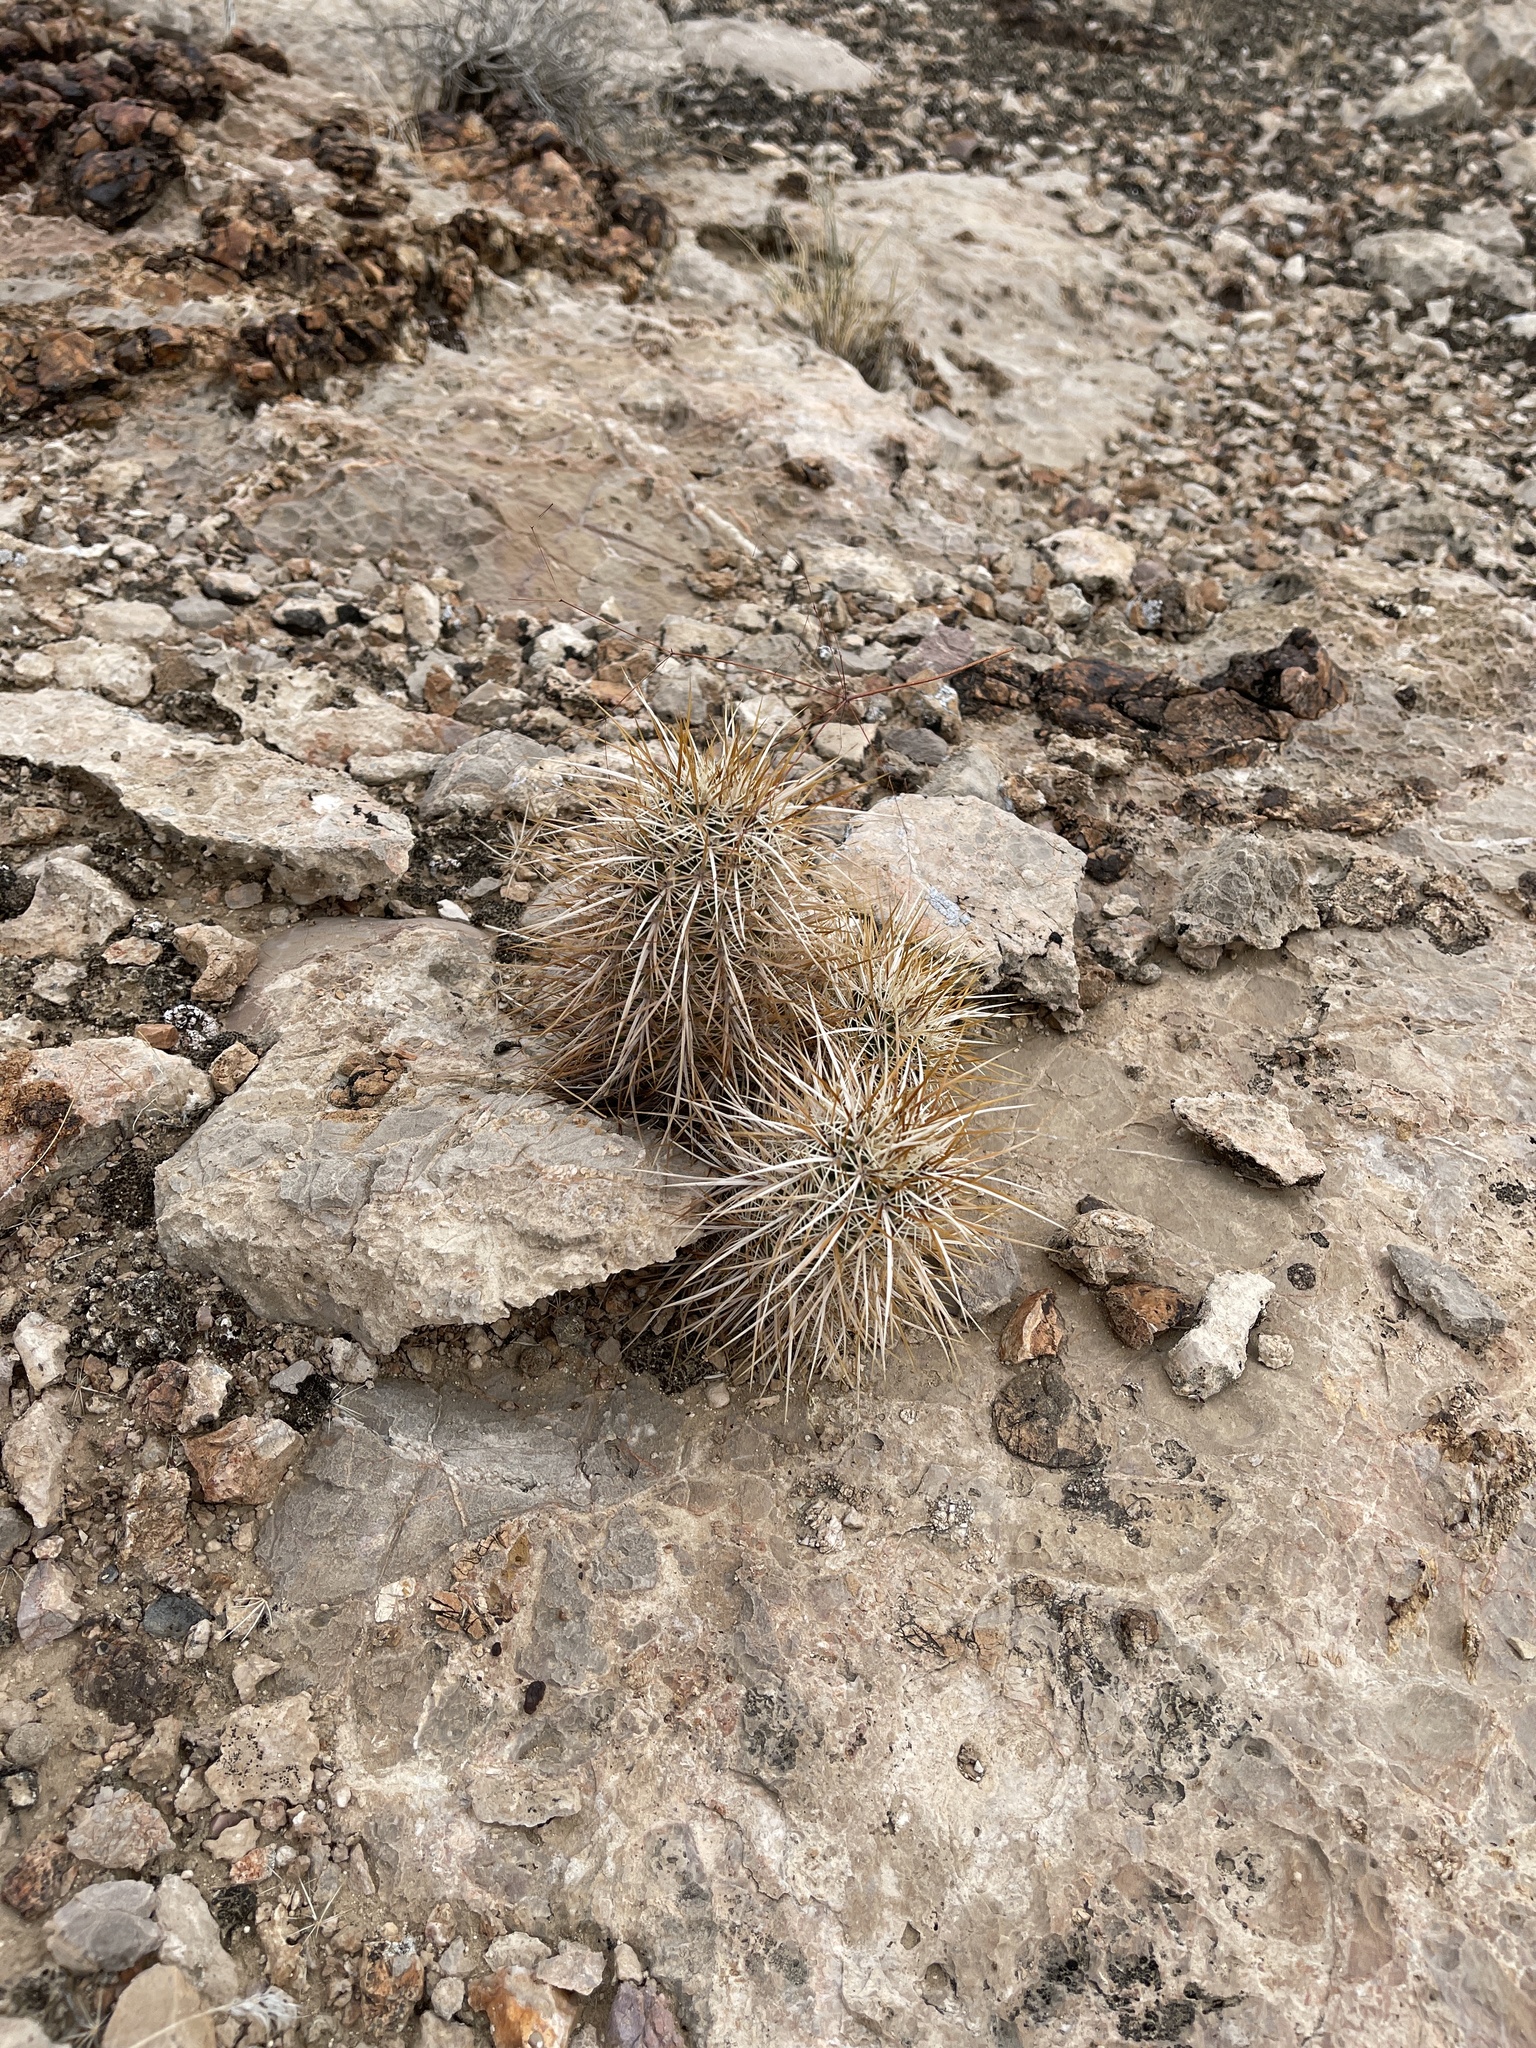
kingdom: Plantae
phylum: Tracheophyta
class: Magnoliopsida
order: Caryophyllales
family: Cactaceae
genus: Echinocereus
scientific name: Echinocereus engelmannii
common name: Engelmann's hedgehog cactus
